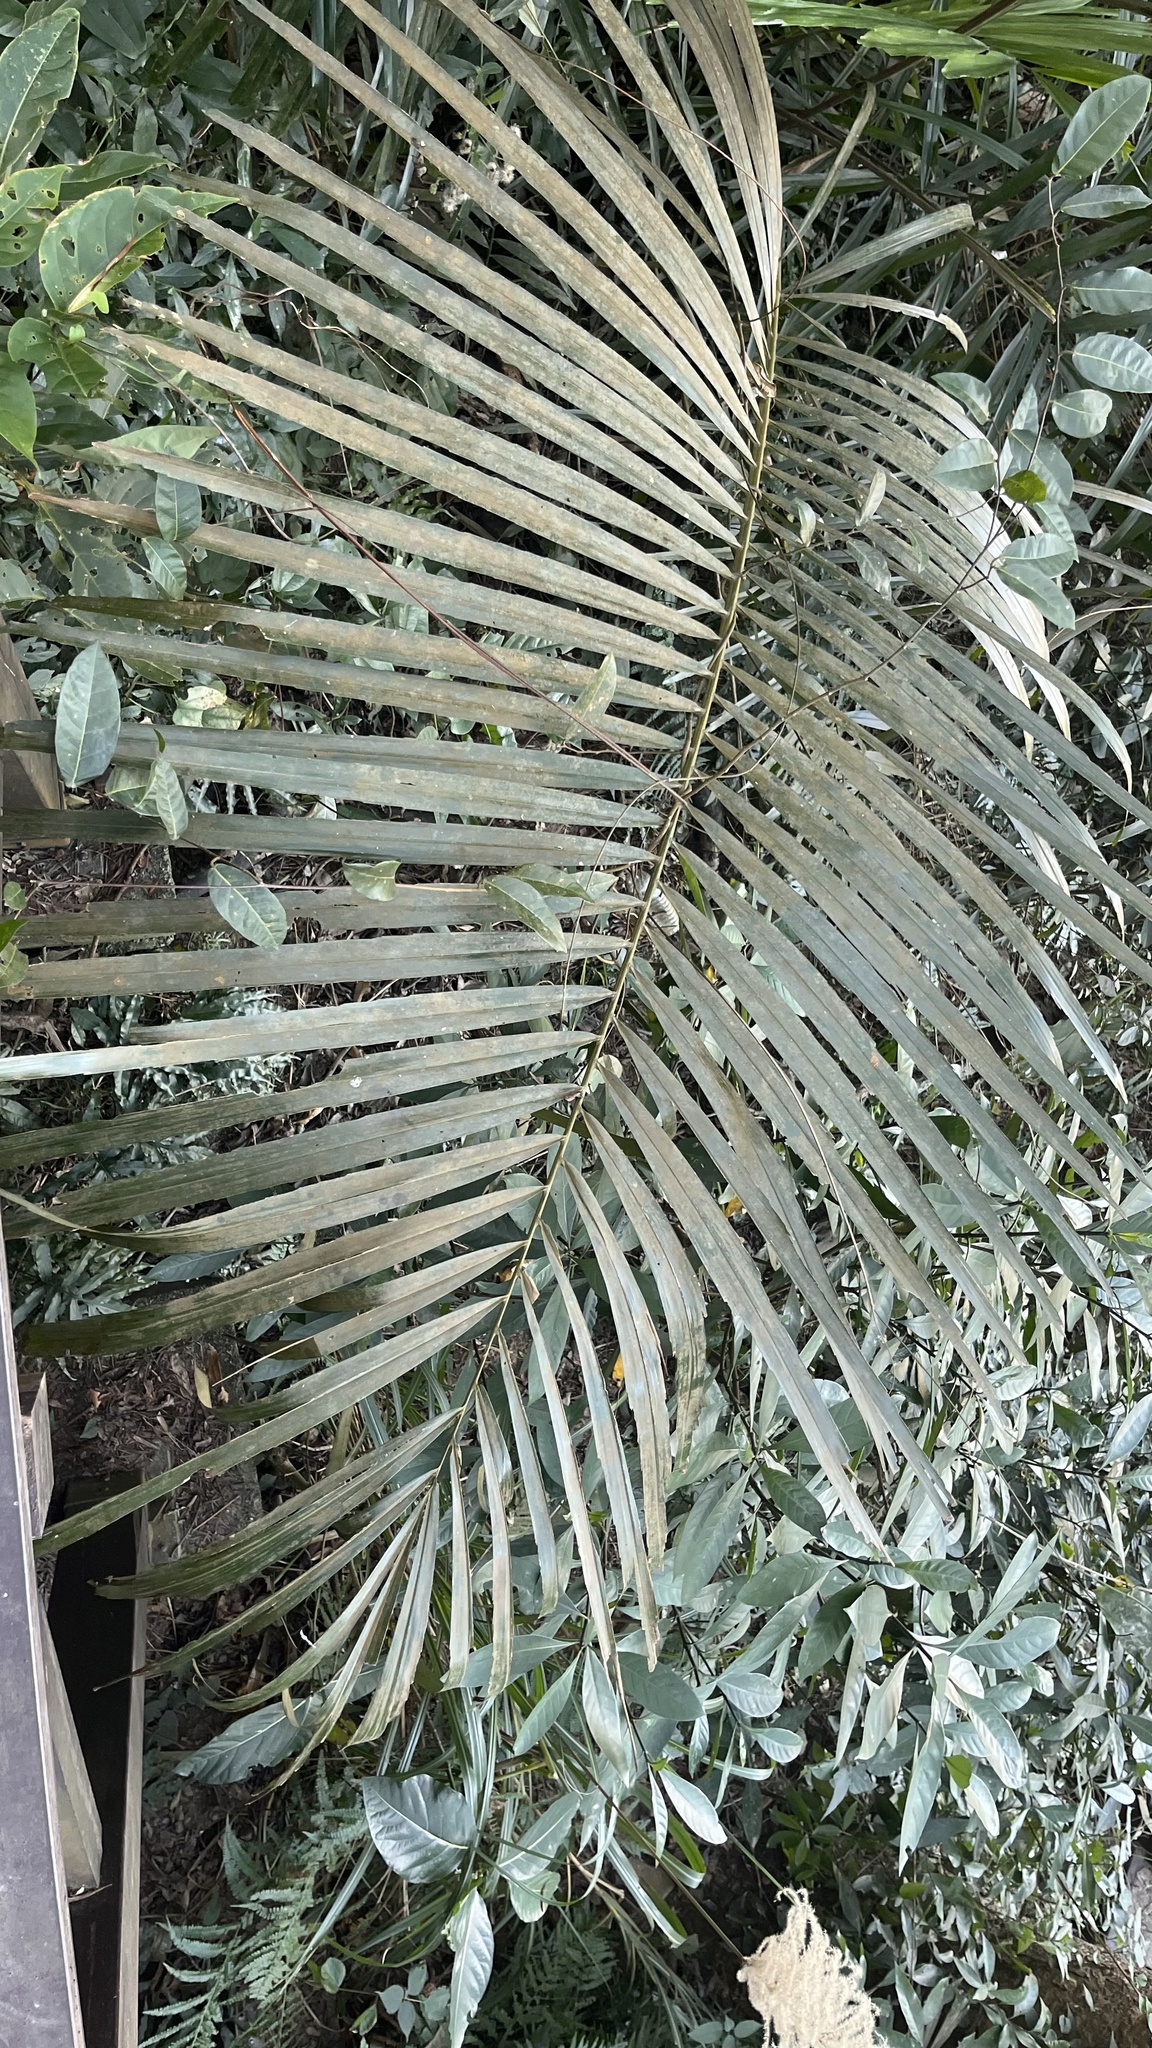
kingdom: Plantae
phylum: Tracheophyta
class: Liliopsida
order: Arecales
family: Arecaceae
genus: Arenga
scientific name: Arenga engleri
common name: Formosan sugar palm
